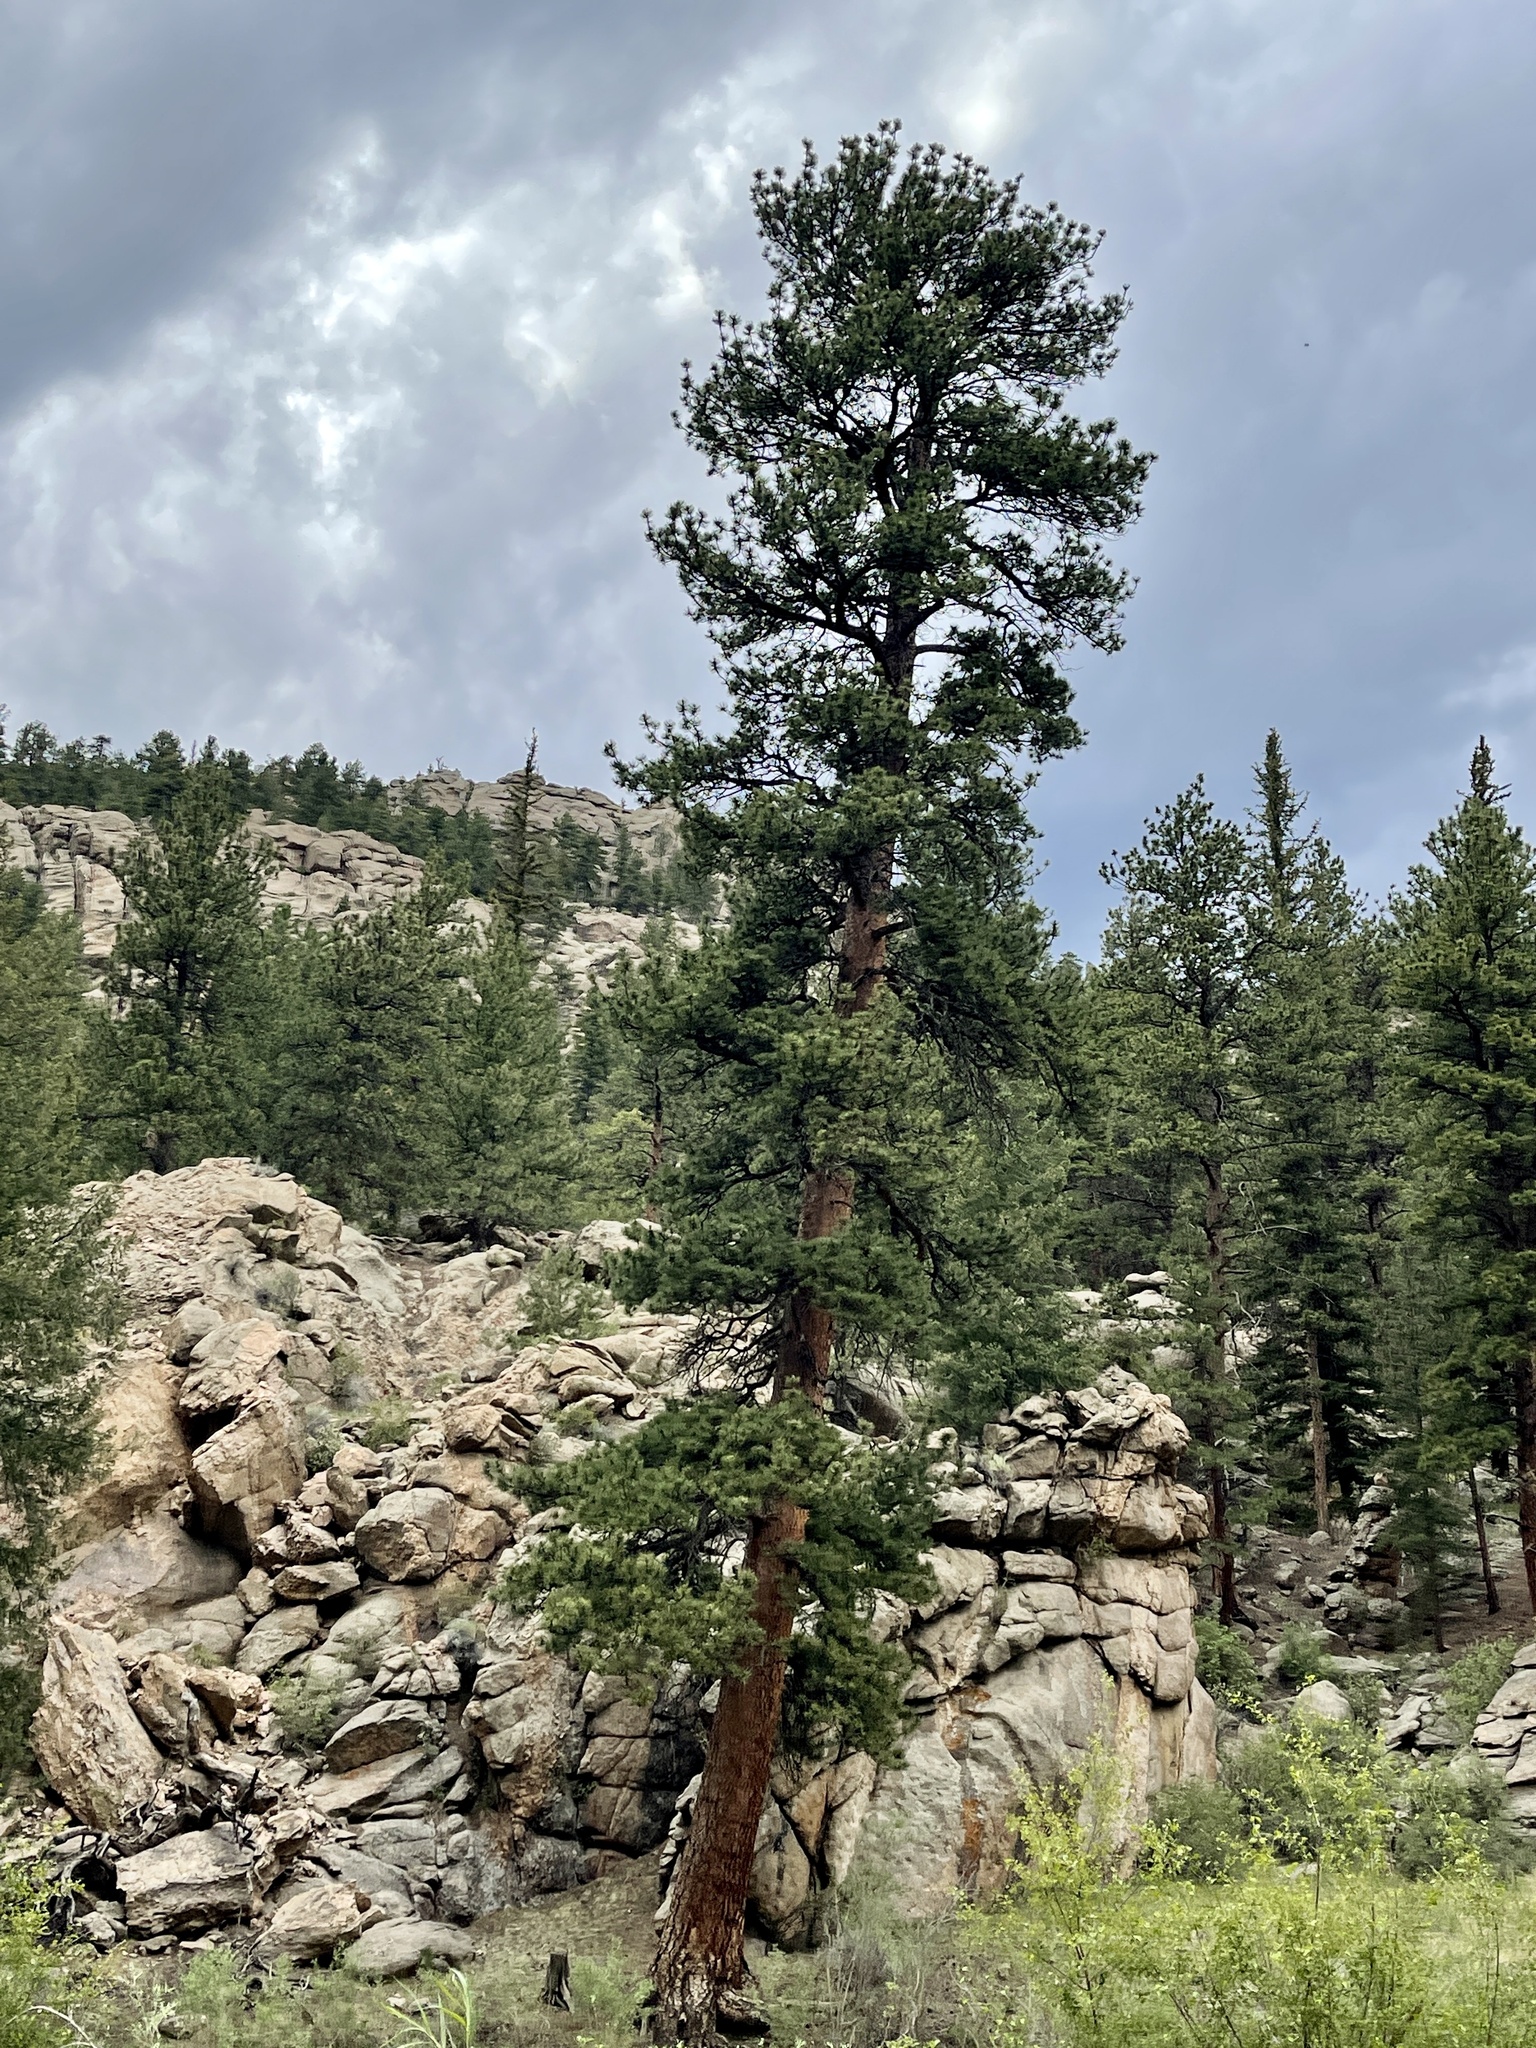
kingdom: Plantae
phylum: Tracheophyta
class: Pinopsida
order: Pinales
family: Pinaceae
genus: Pinus
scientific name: Pinus ponderosa
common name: Western yellow-pine
